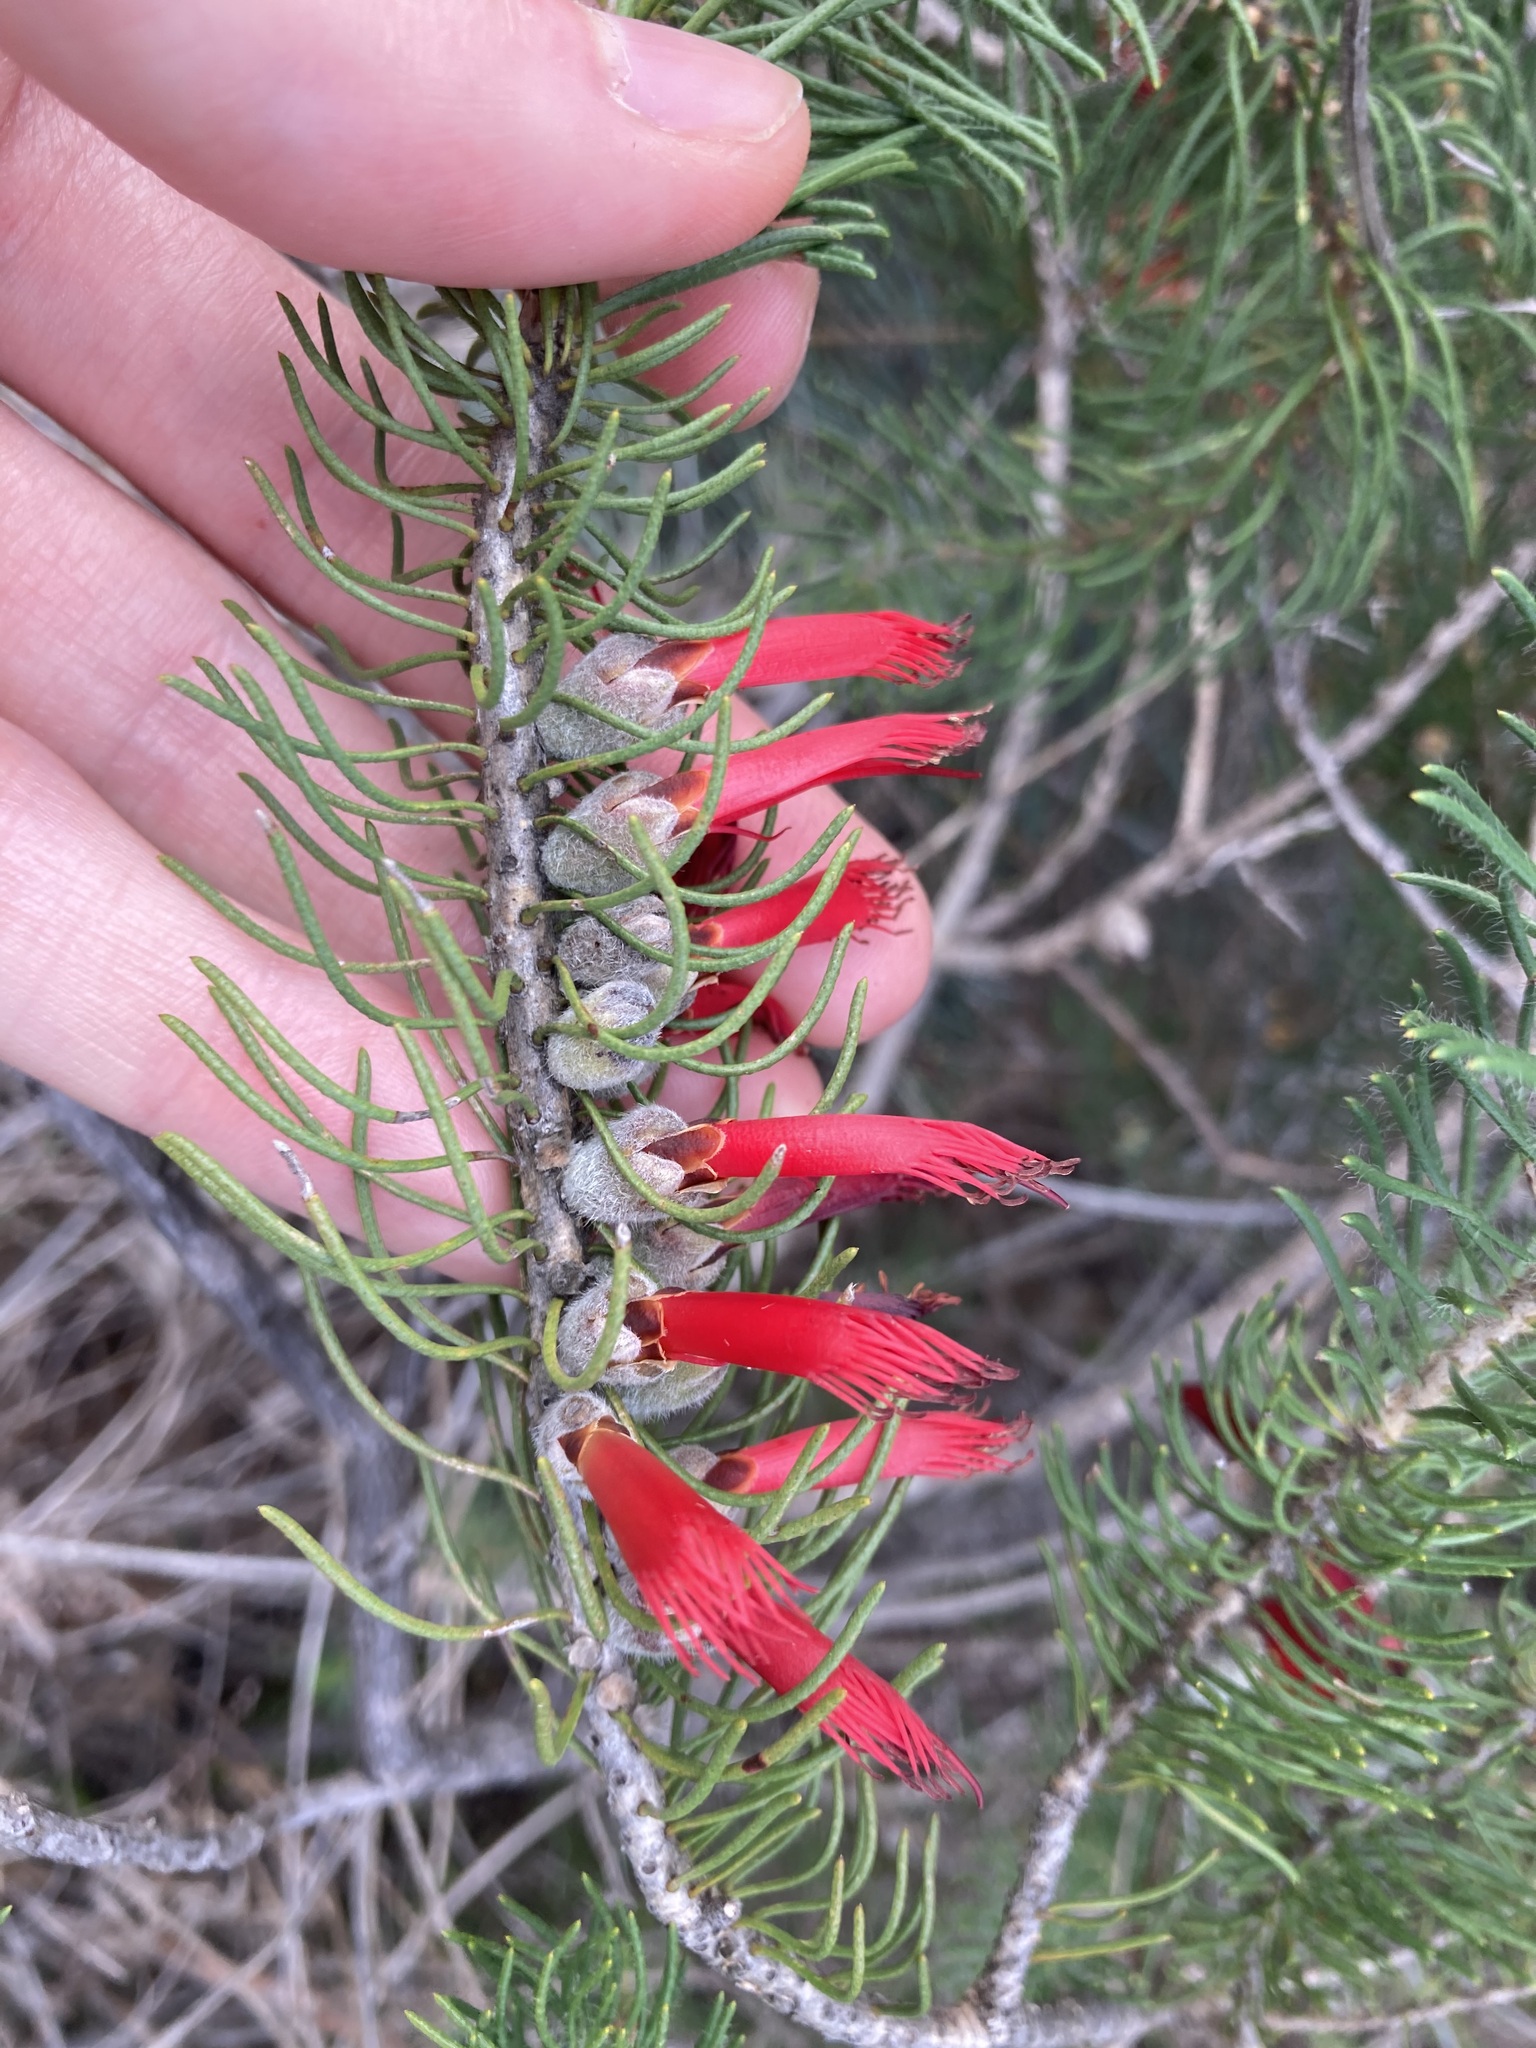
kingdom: Plantae
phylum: Tracheophyta
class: Magnoliopsida
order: Myrtales
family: Myrtaceae
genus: Melaleuca
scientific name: Melaleuca cruenta
